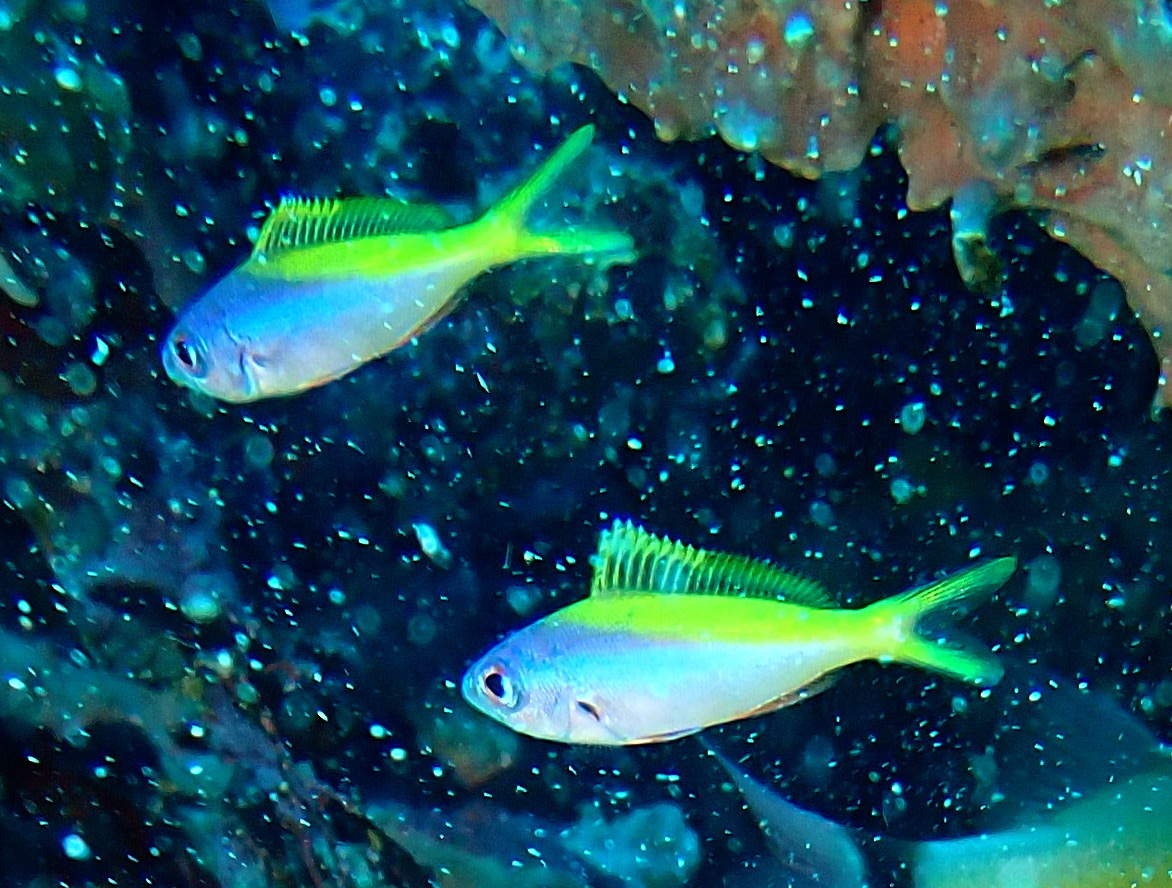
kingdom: Animalia
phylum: Chordata
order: Perciformes
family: Caesionidae
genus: Caesio
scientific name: Caesio teres
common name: Yellow and blueback fusilier
